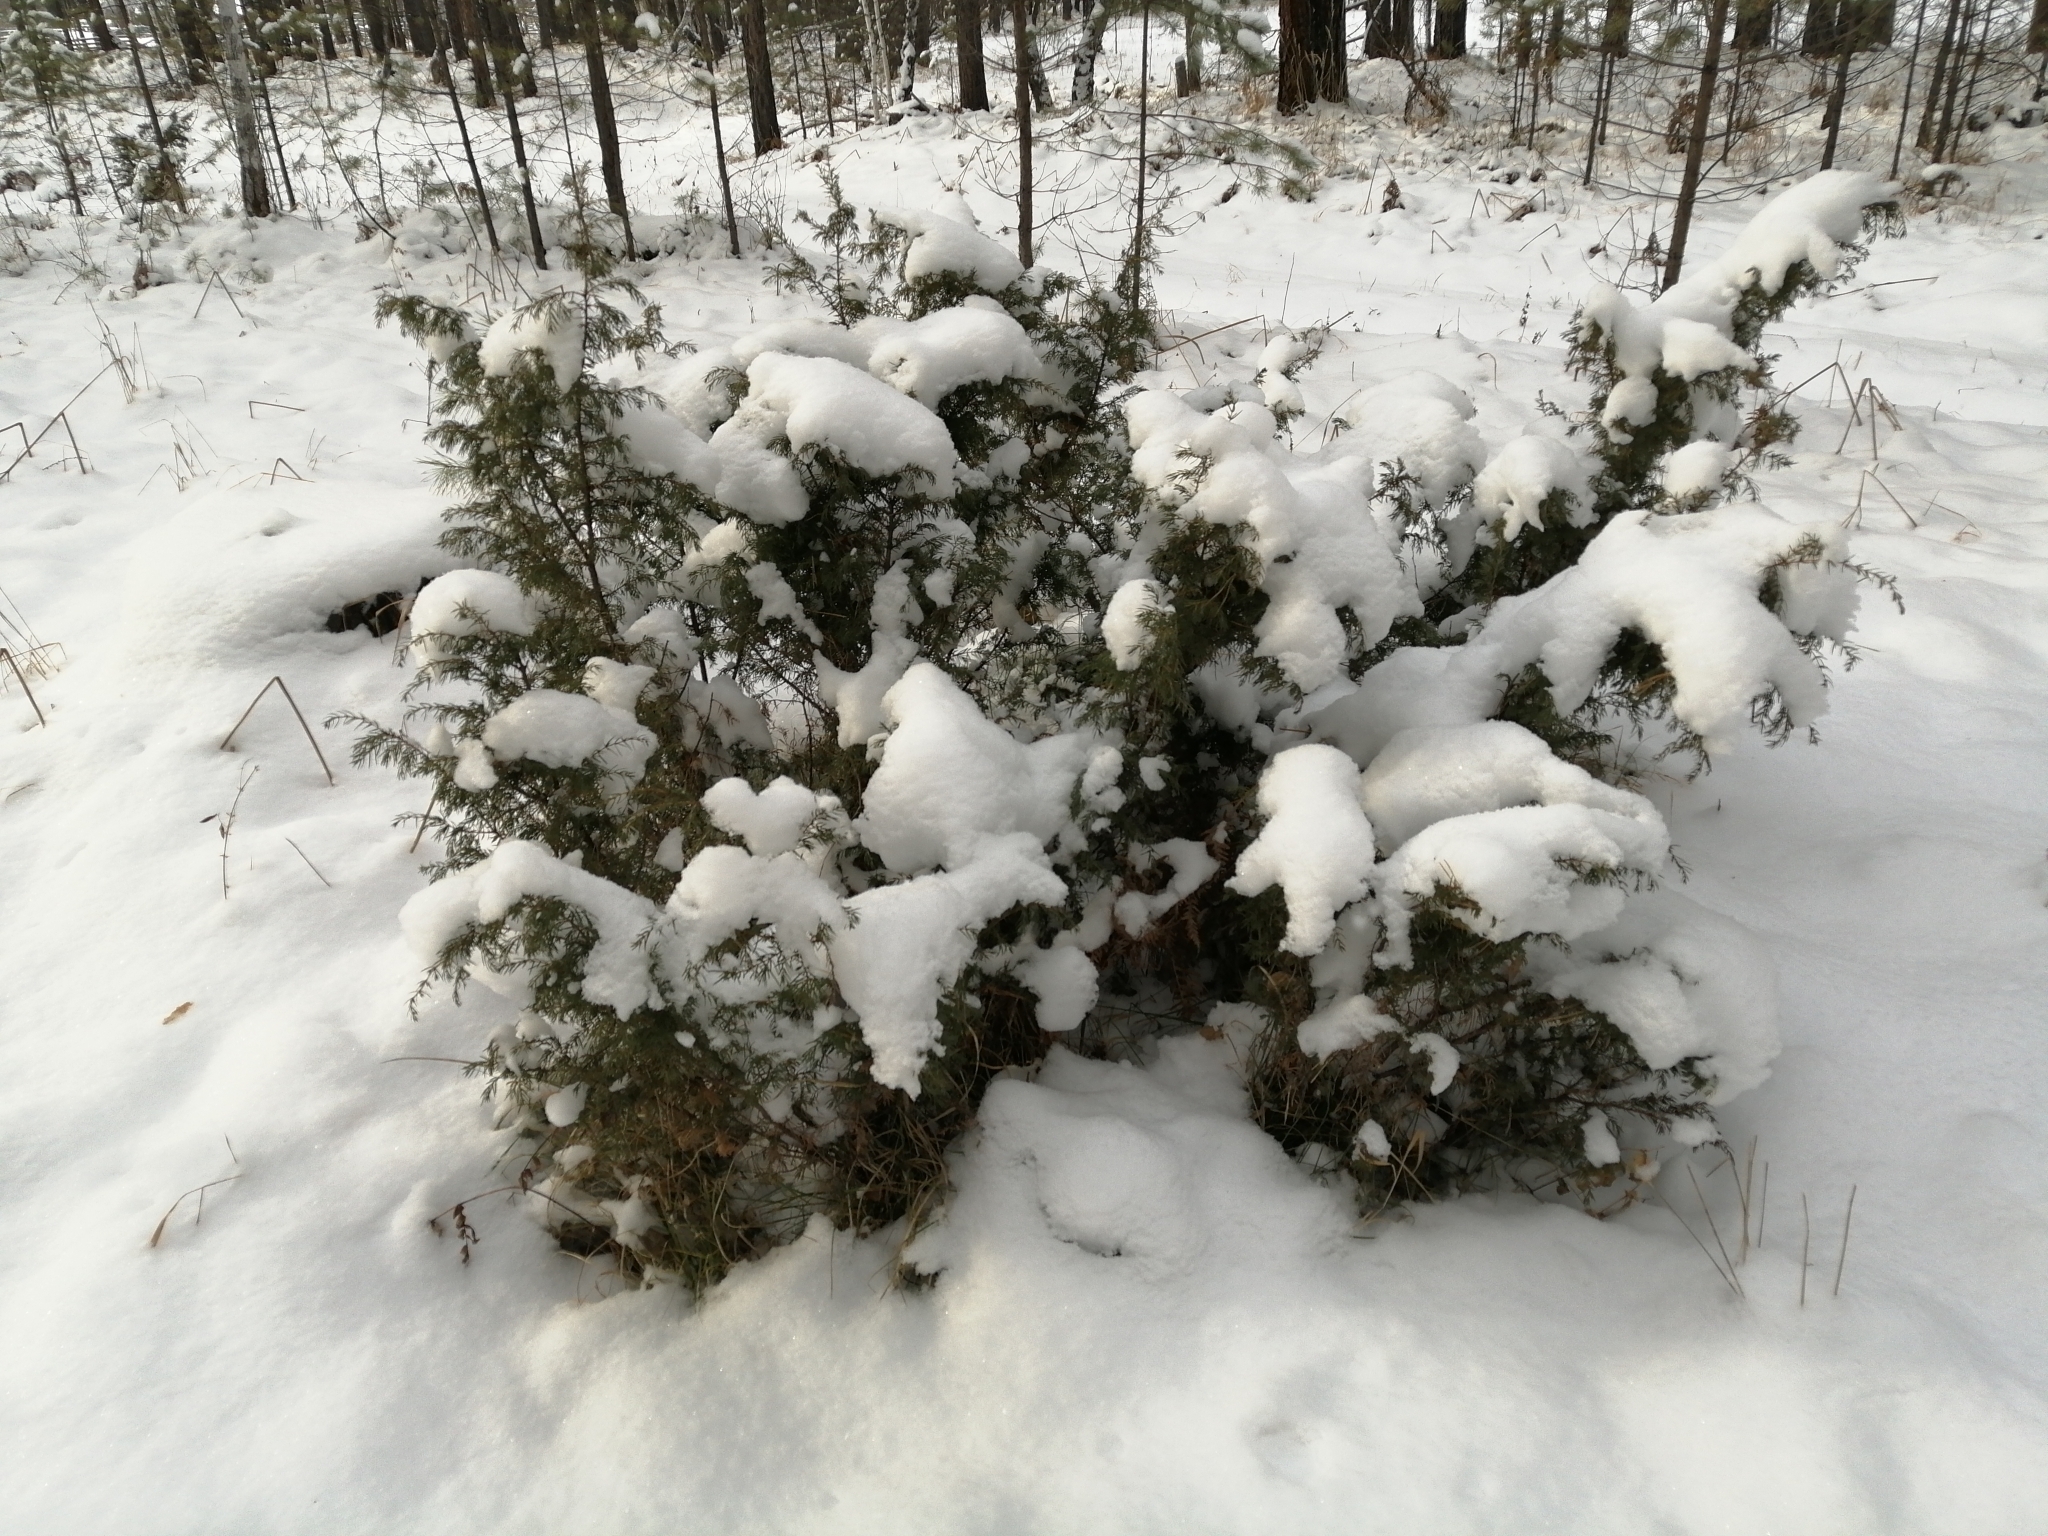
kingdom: Plantae
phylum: Tracheophyta
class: Pinopsida
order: Pinales
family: Cupressaceae
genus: Juniperus
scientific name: Juniperus communis
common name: Common juniper
